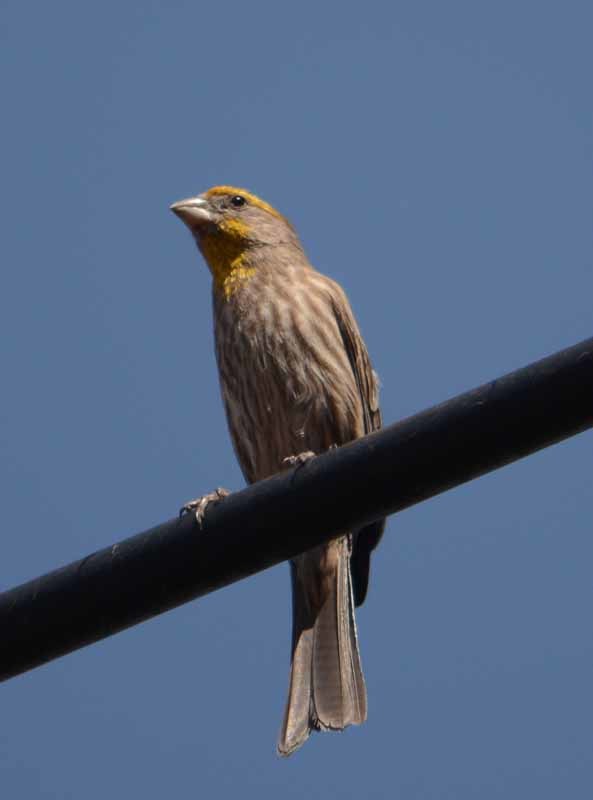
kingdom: Animalia
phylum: Chordata
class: Aves
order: Passeriformes
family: Fringillidae
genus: Haemorhous
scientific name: Haemorhous mexicanus
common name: House finch
